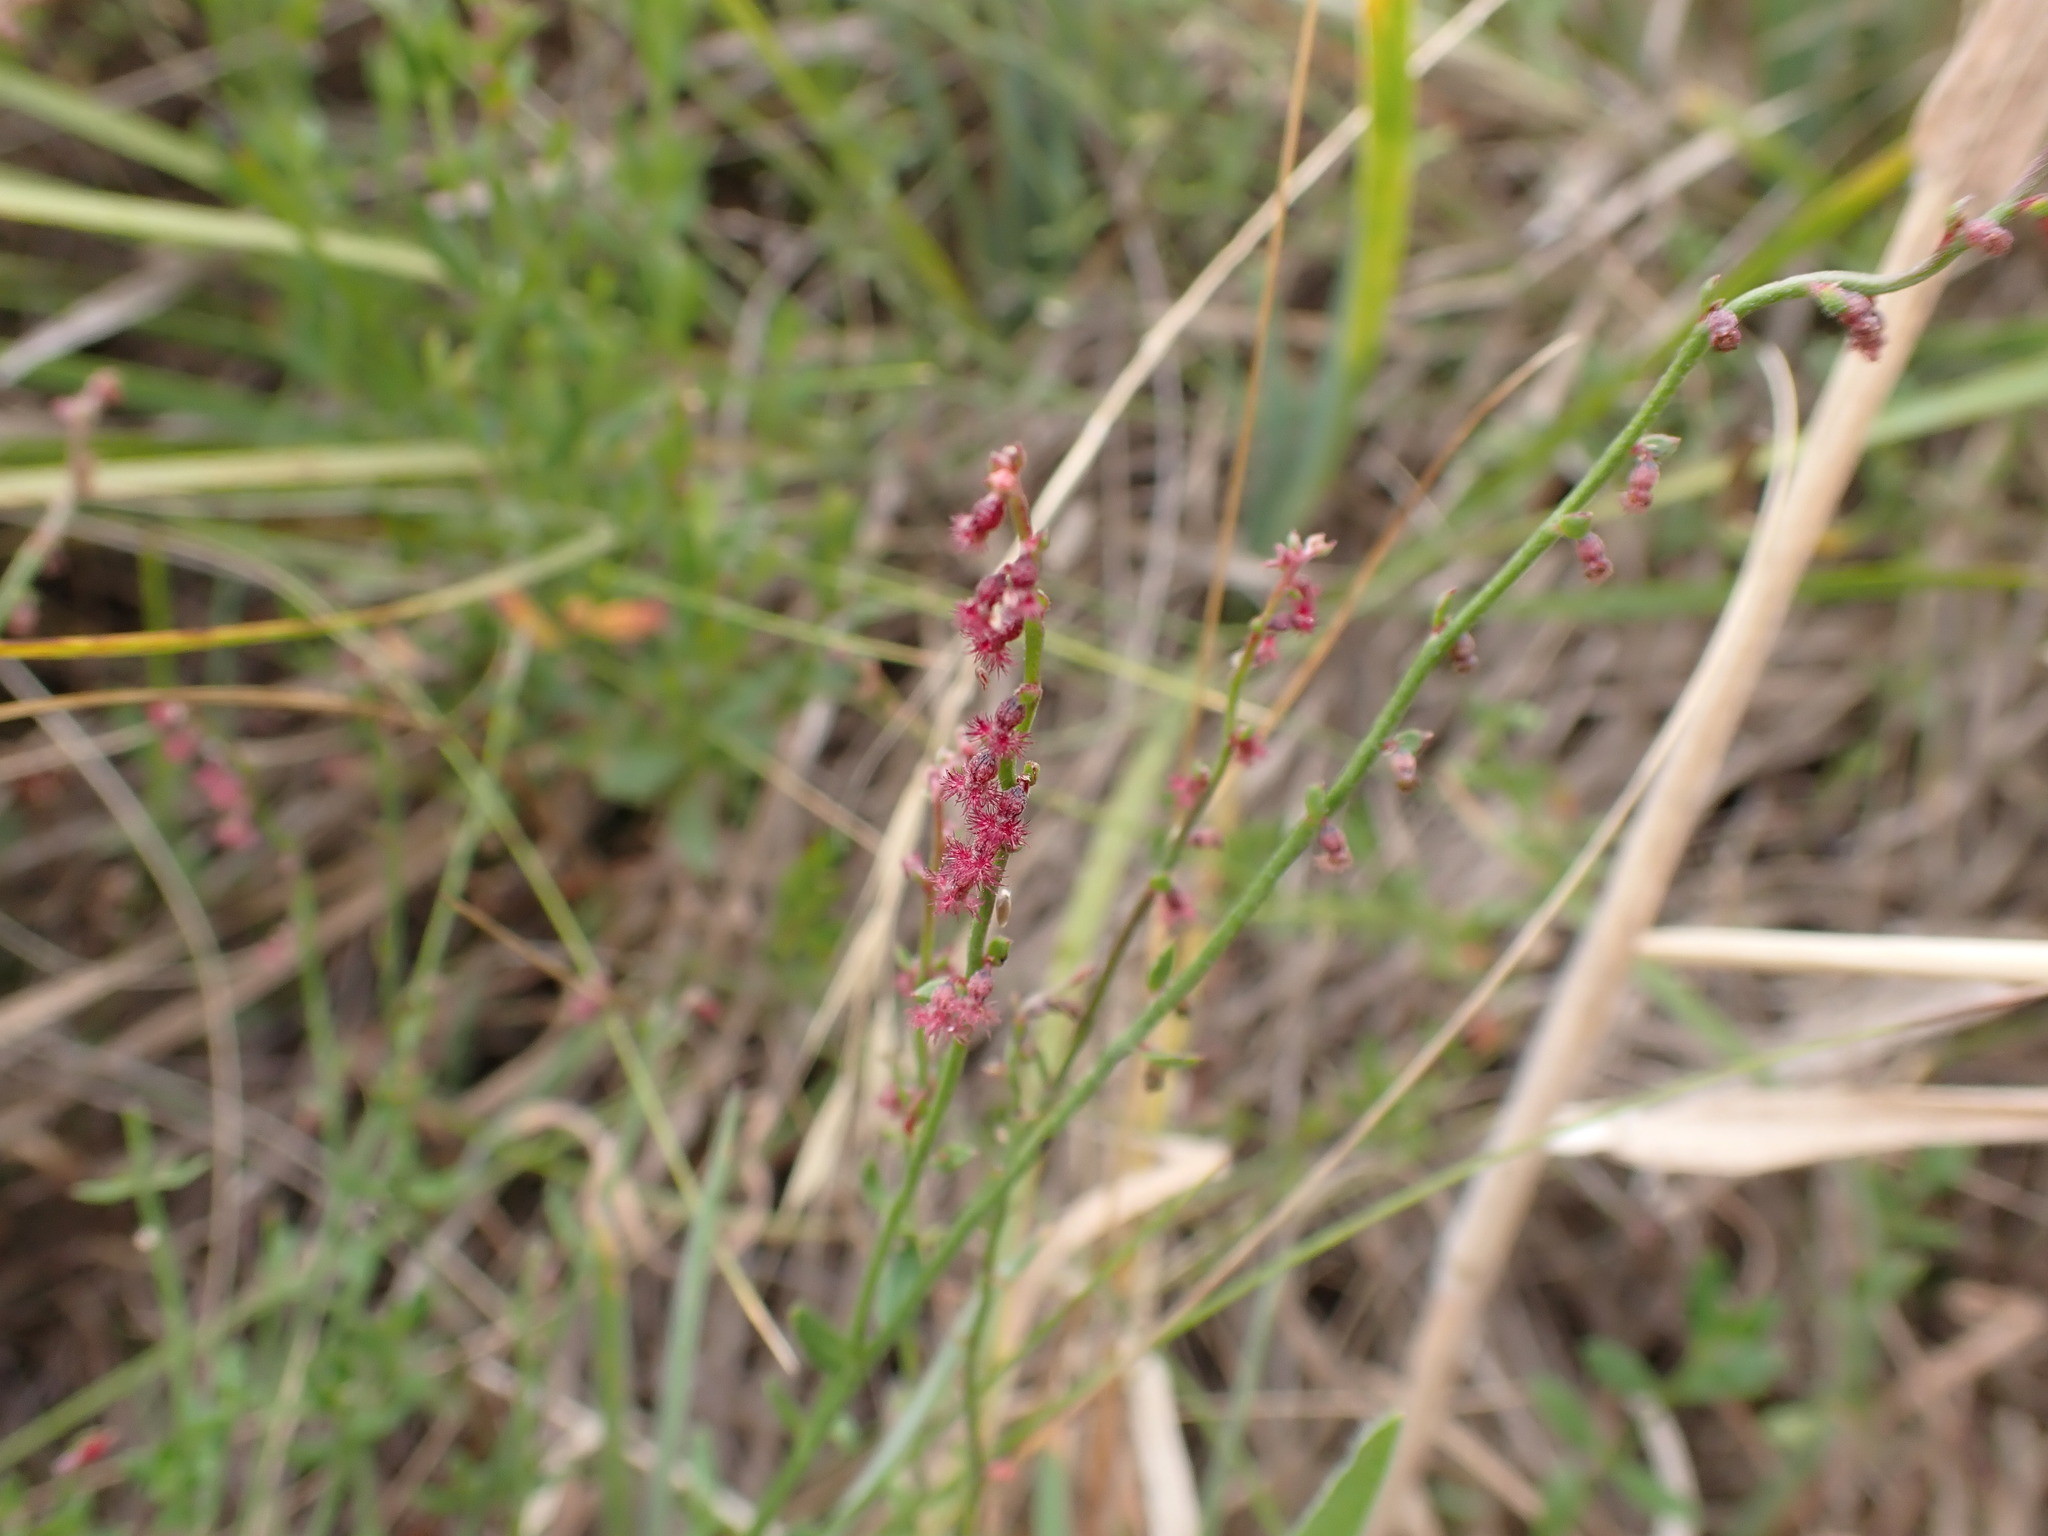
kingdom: Plantae
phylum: Tracheophyta
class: Magnoliopsida
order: Saxifragales
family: Haloragaceae
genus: Gonocarpus
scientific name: Gonocarpus tetragynus
